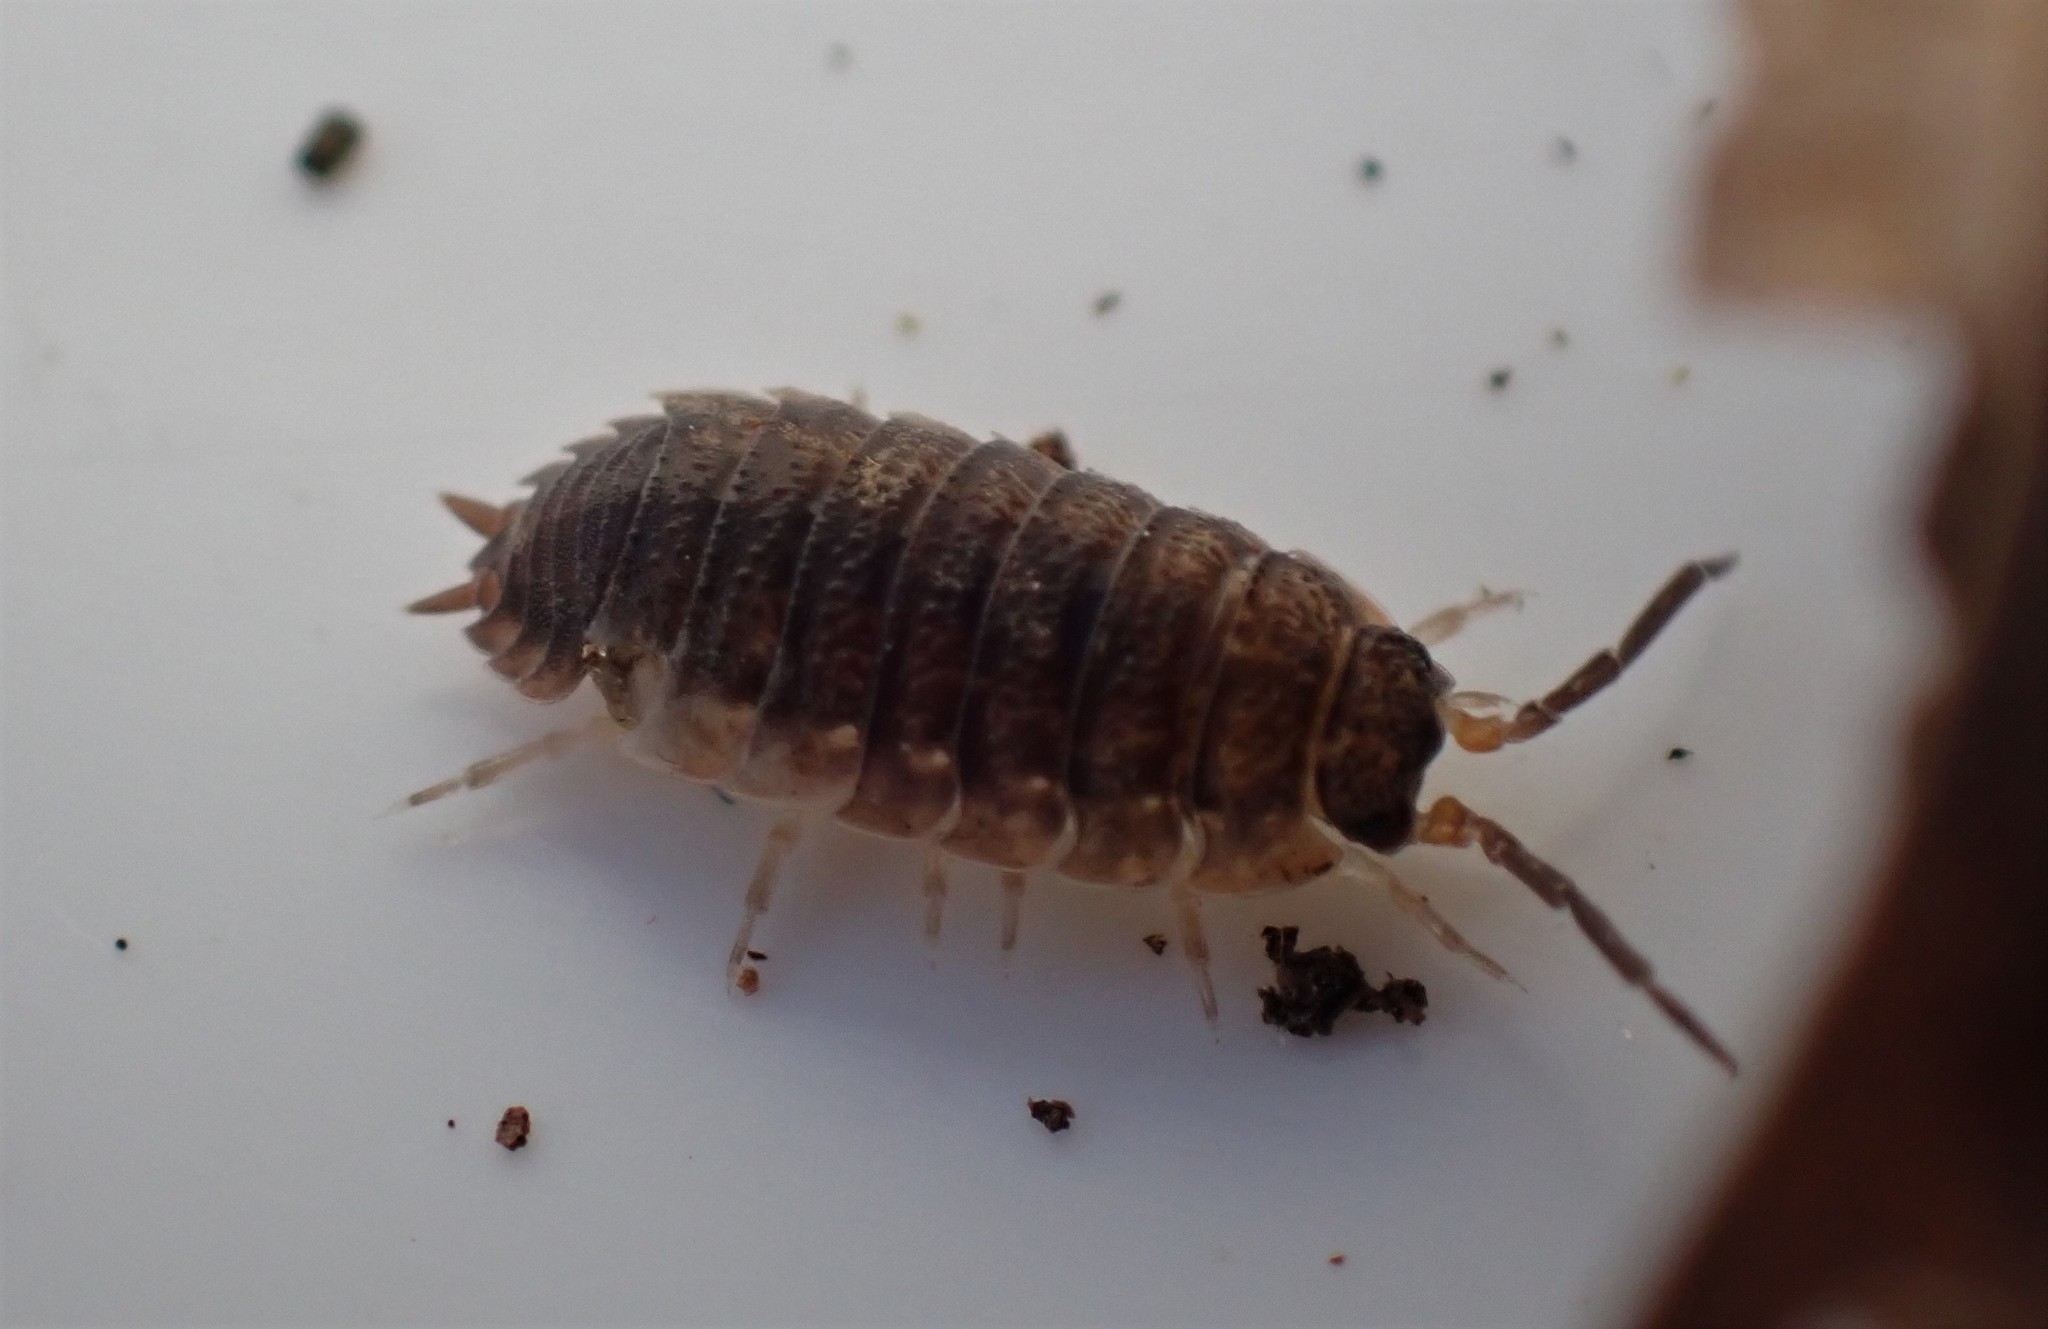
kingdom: Animalia
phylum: Arthropoda
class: Malacostraca
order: Isopoda
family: Porcellionidae
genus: Porcellio
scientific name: Porcellio scaber
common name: Common rough woodlouse
